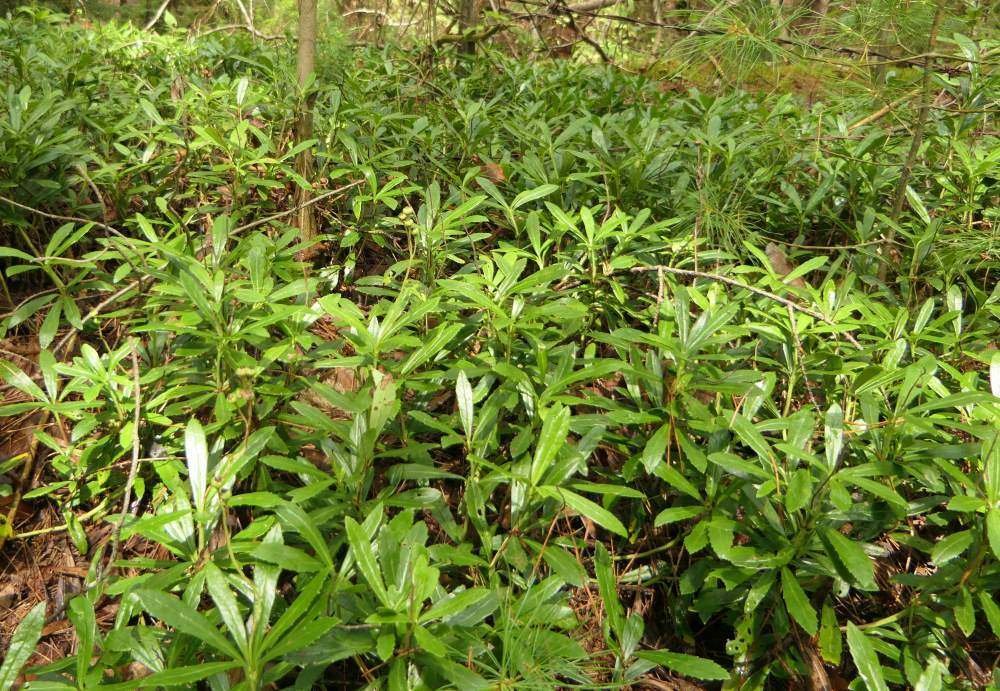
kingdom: Plantae
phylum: Tracheophyta
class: Magnoliopsida
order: Ericales
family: Ericaceae
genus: Chimaphila
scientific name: Chimaphila umbellata
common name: Pipsissewa
